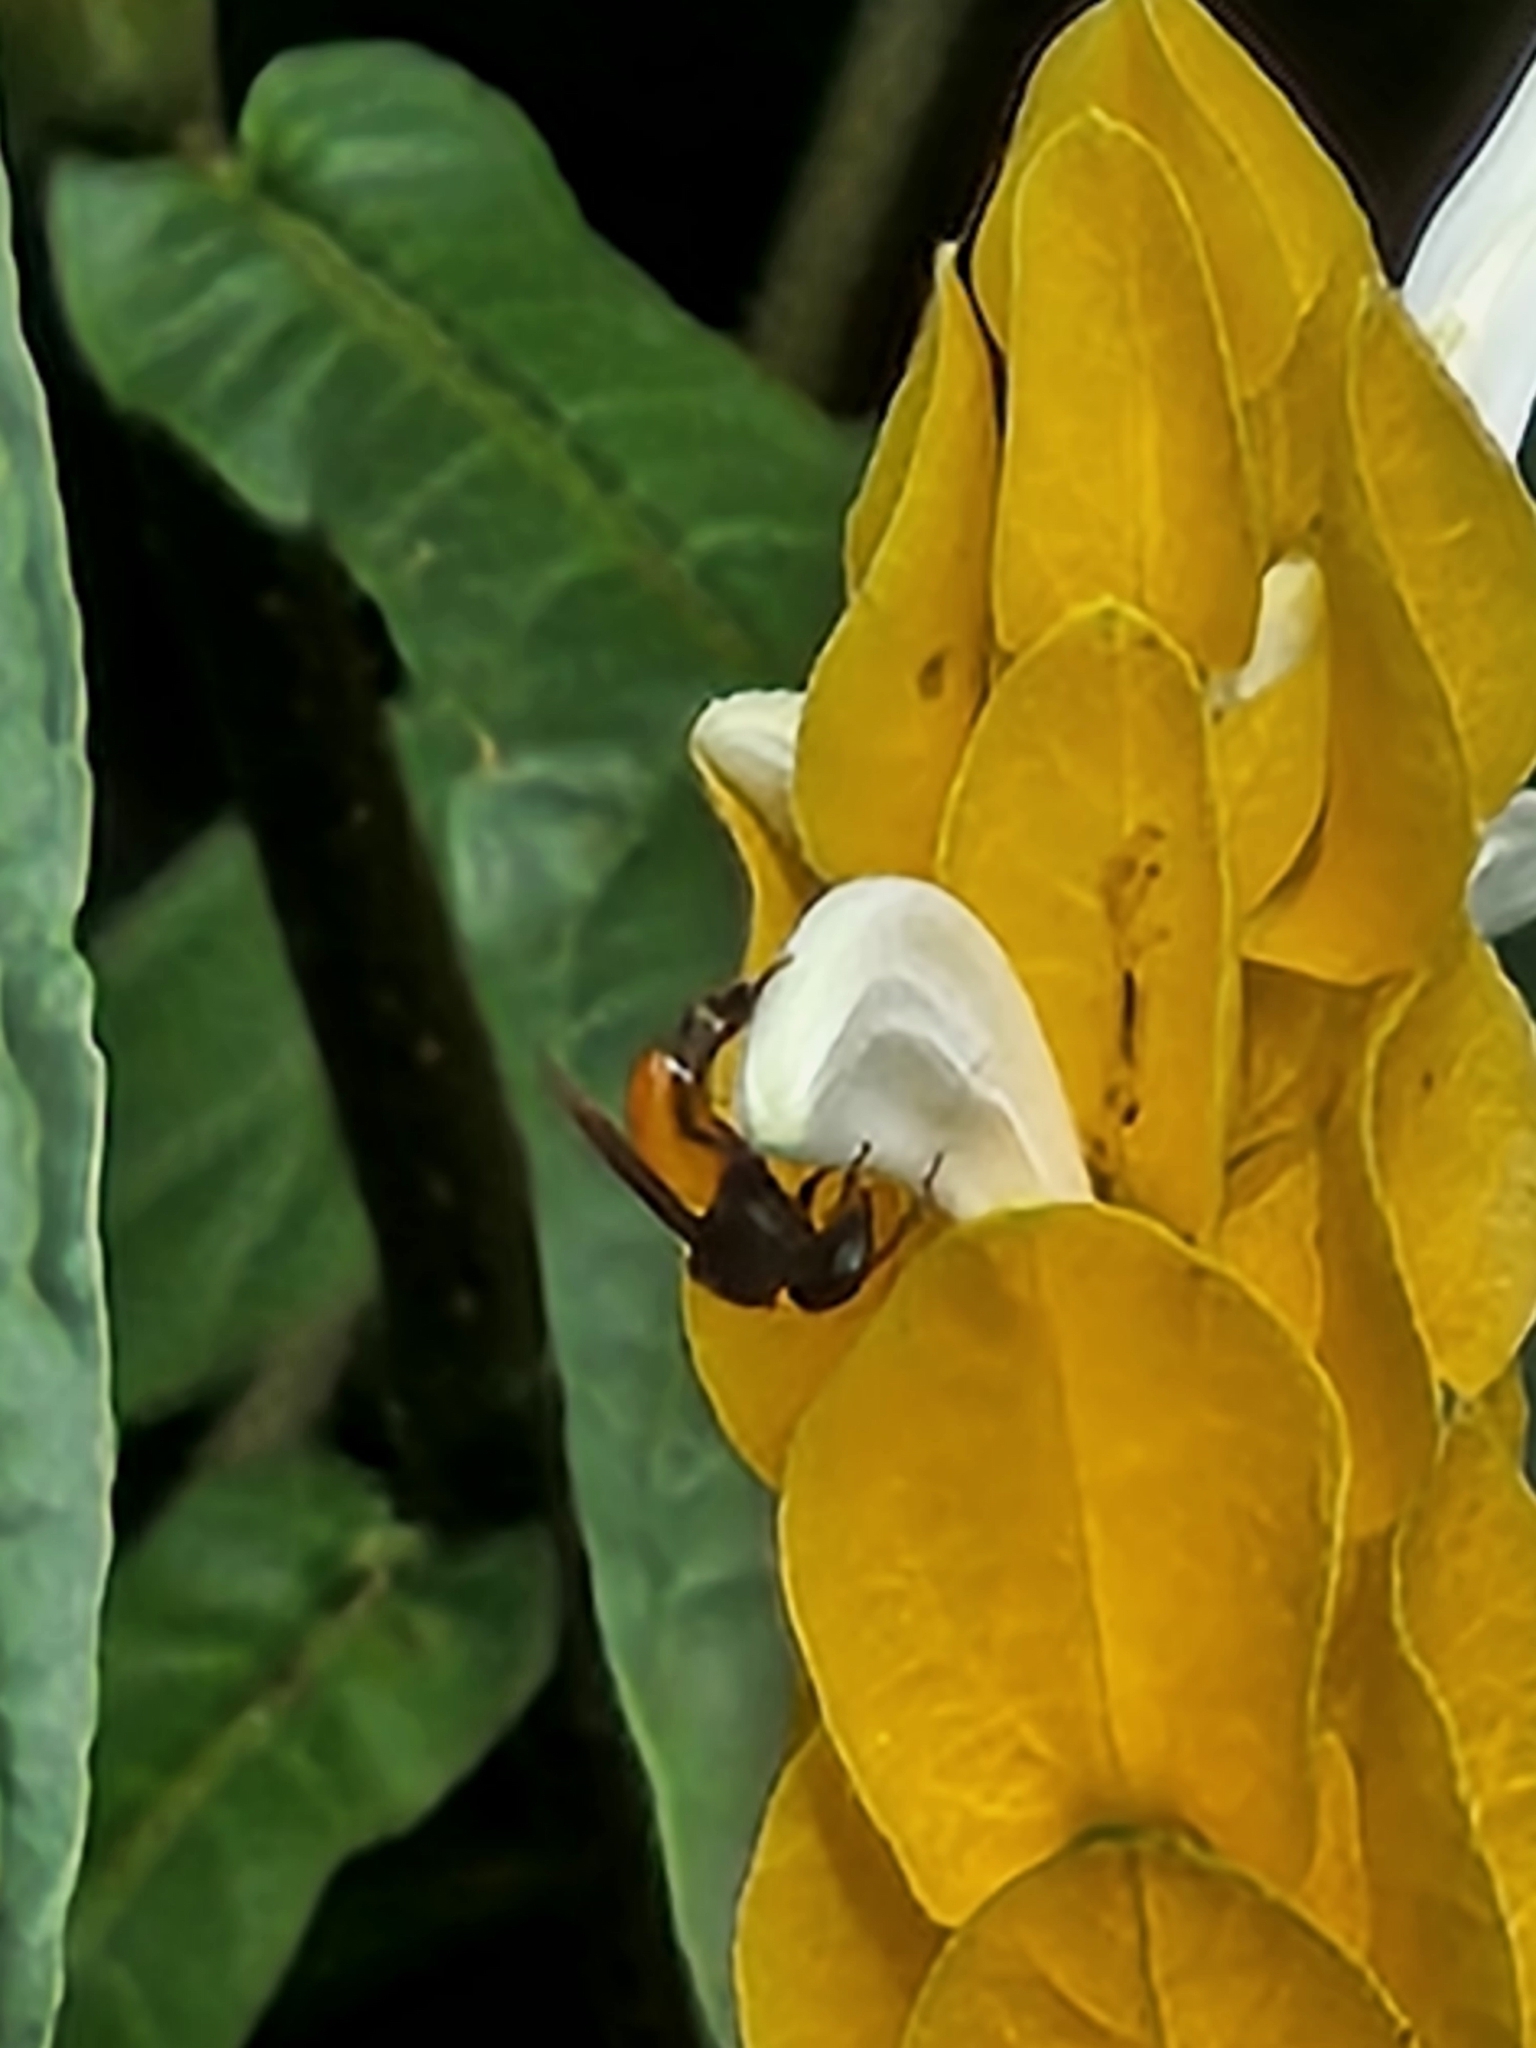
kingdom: Animalia
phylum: Arthropoda
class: Insecta
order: Hymenoptera
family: Apidae
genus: Trigona
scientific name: Trigona fulviventris
